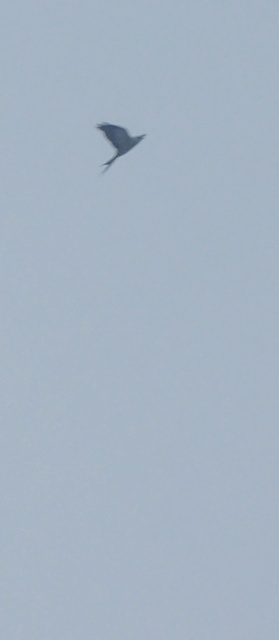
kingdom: Animalia
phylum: Chordata
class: Aves
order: Accipitriformes
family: Accipitridae
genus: Elanoides
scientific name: Elanoides forficatus
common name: Swallow-tailed kite
